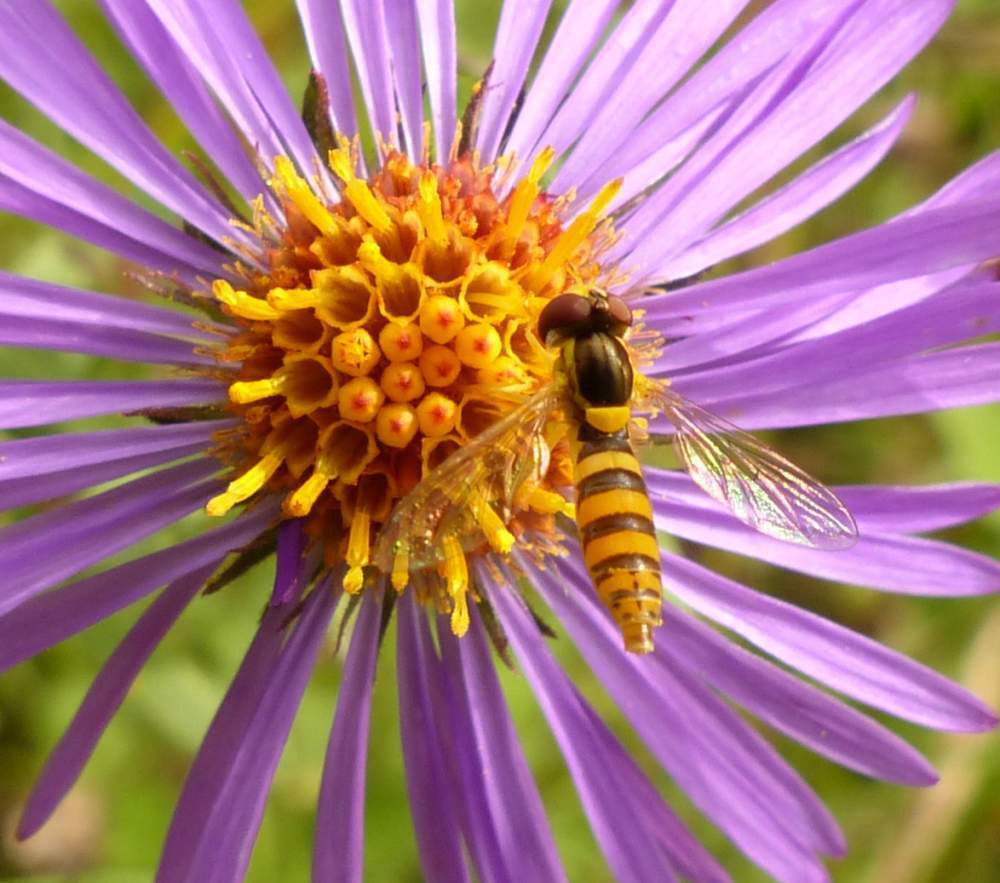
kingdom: Animalia
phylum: Arthropoda
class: Insecta
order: Diptera
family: Syrphidae
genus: Sphaerophoria
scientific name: Sphaerophoria
